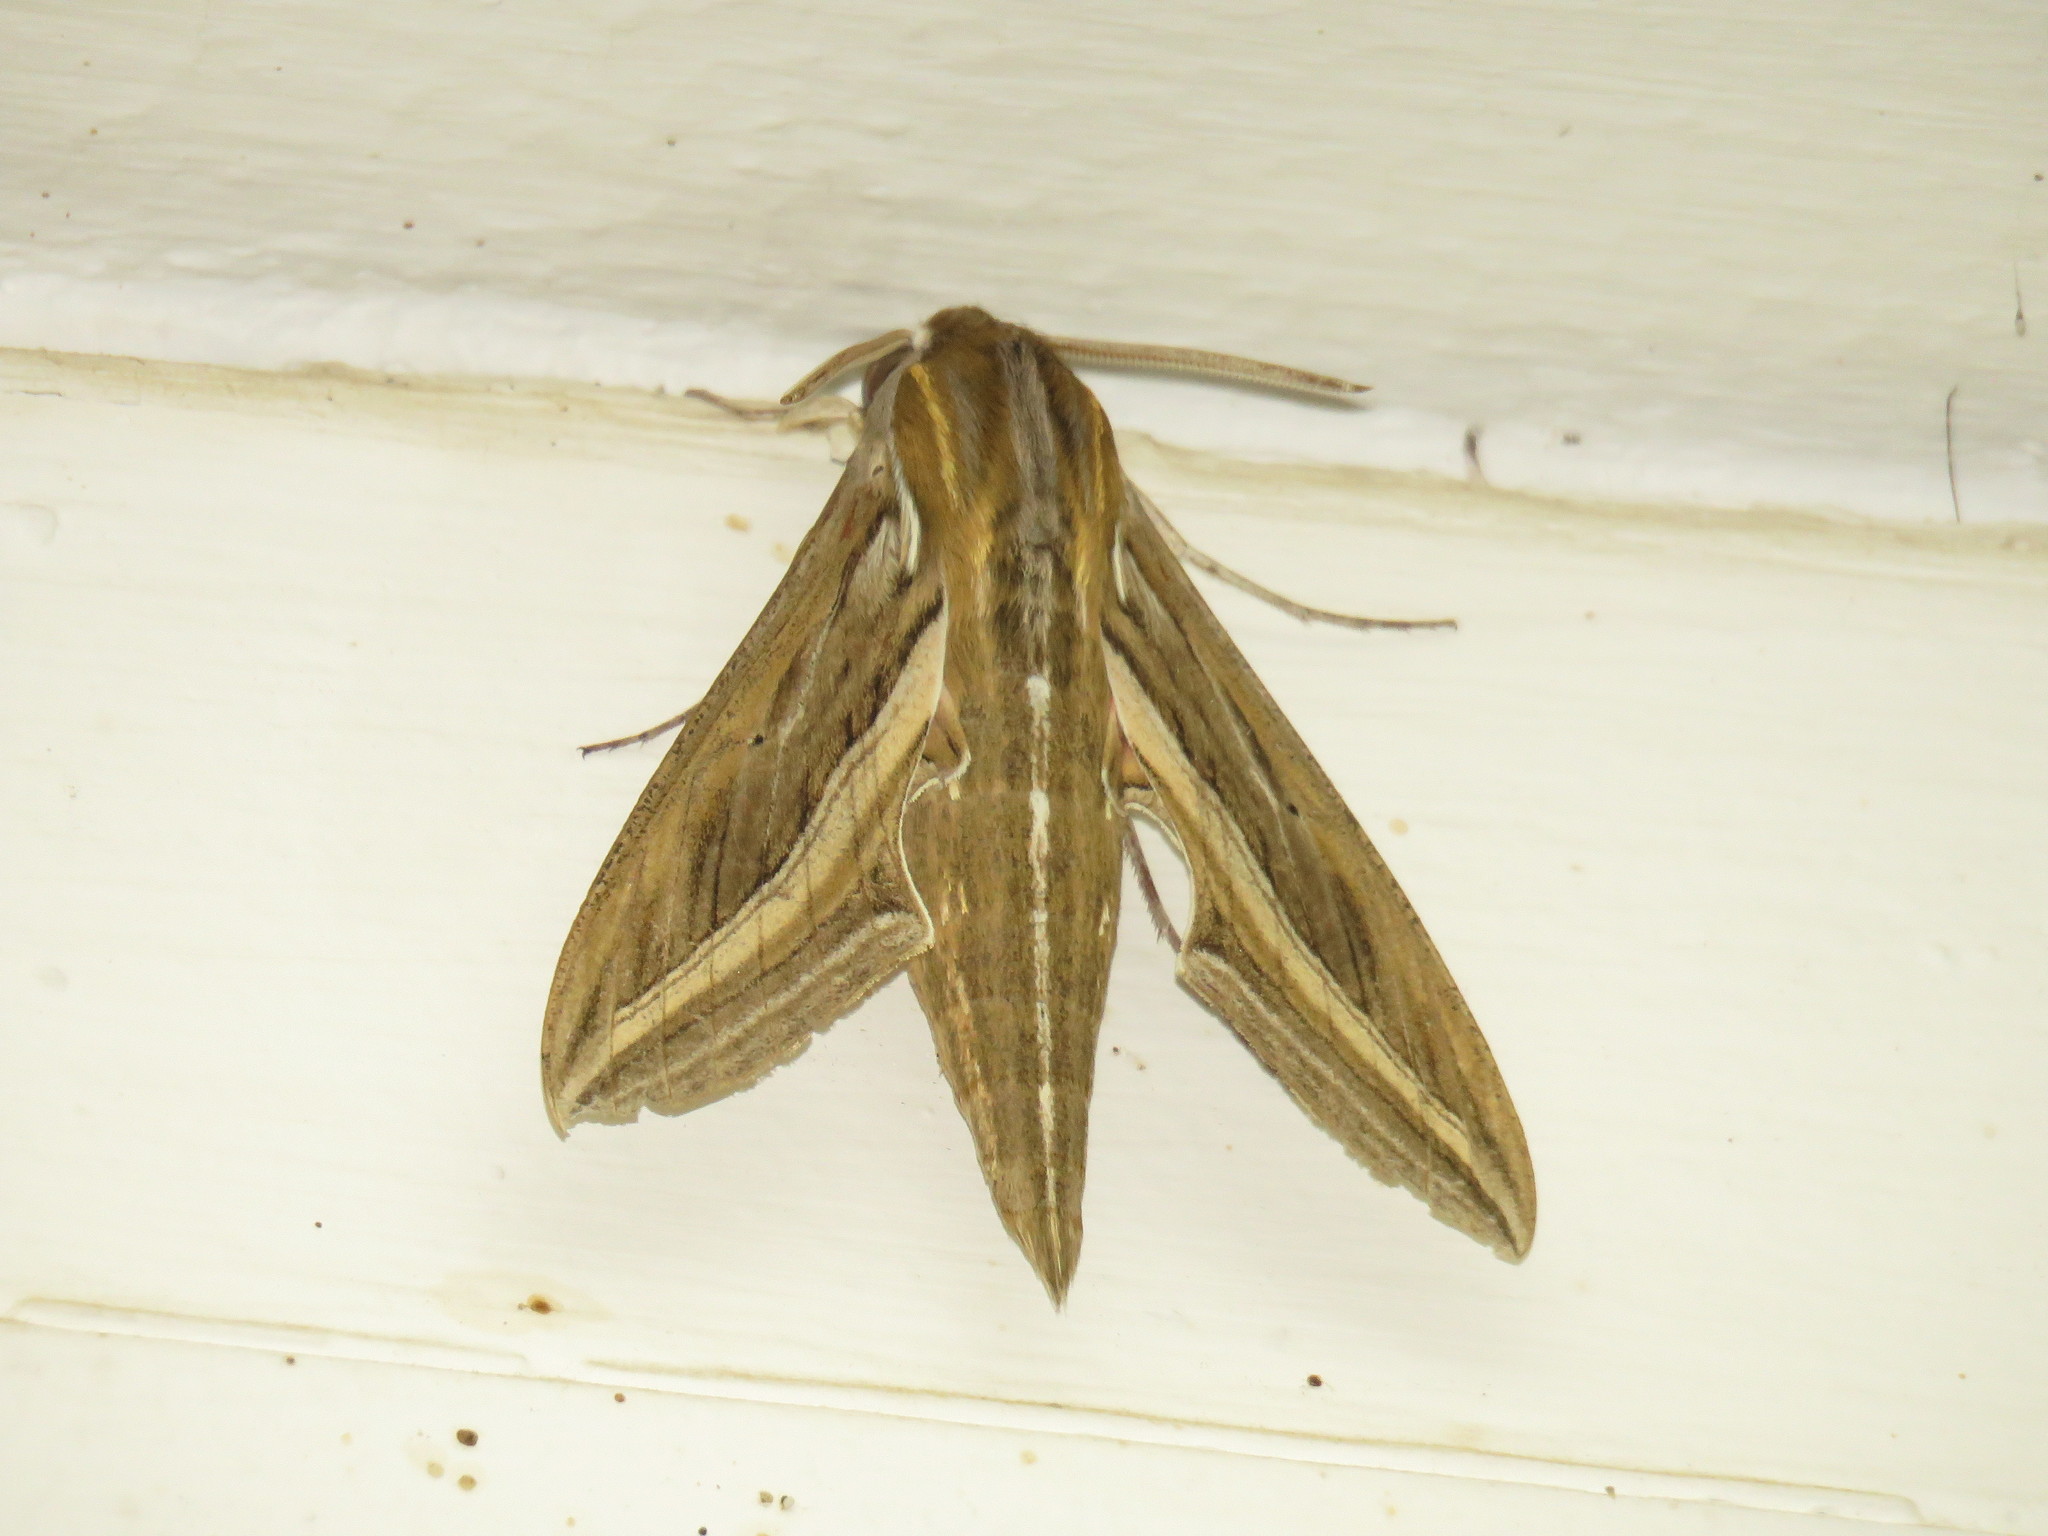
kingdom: Animalia
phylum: Arthropoda
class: Insecta
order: Lepidoptera
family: Sphingidae
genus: Hippotion
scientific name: Hippotion celerio
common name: Silver-striped hawk-moth
